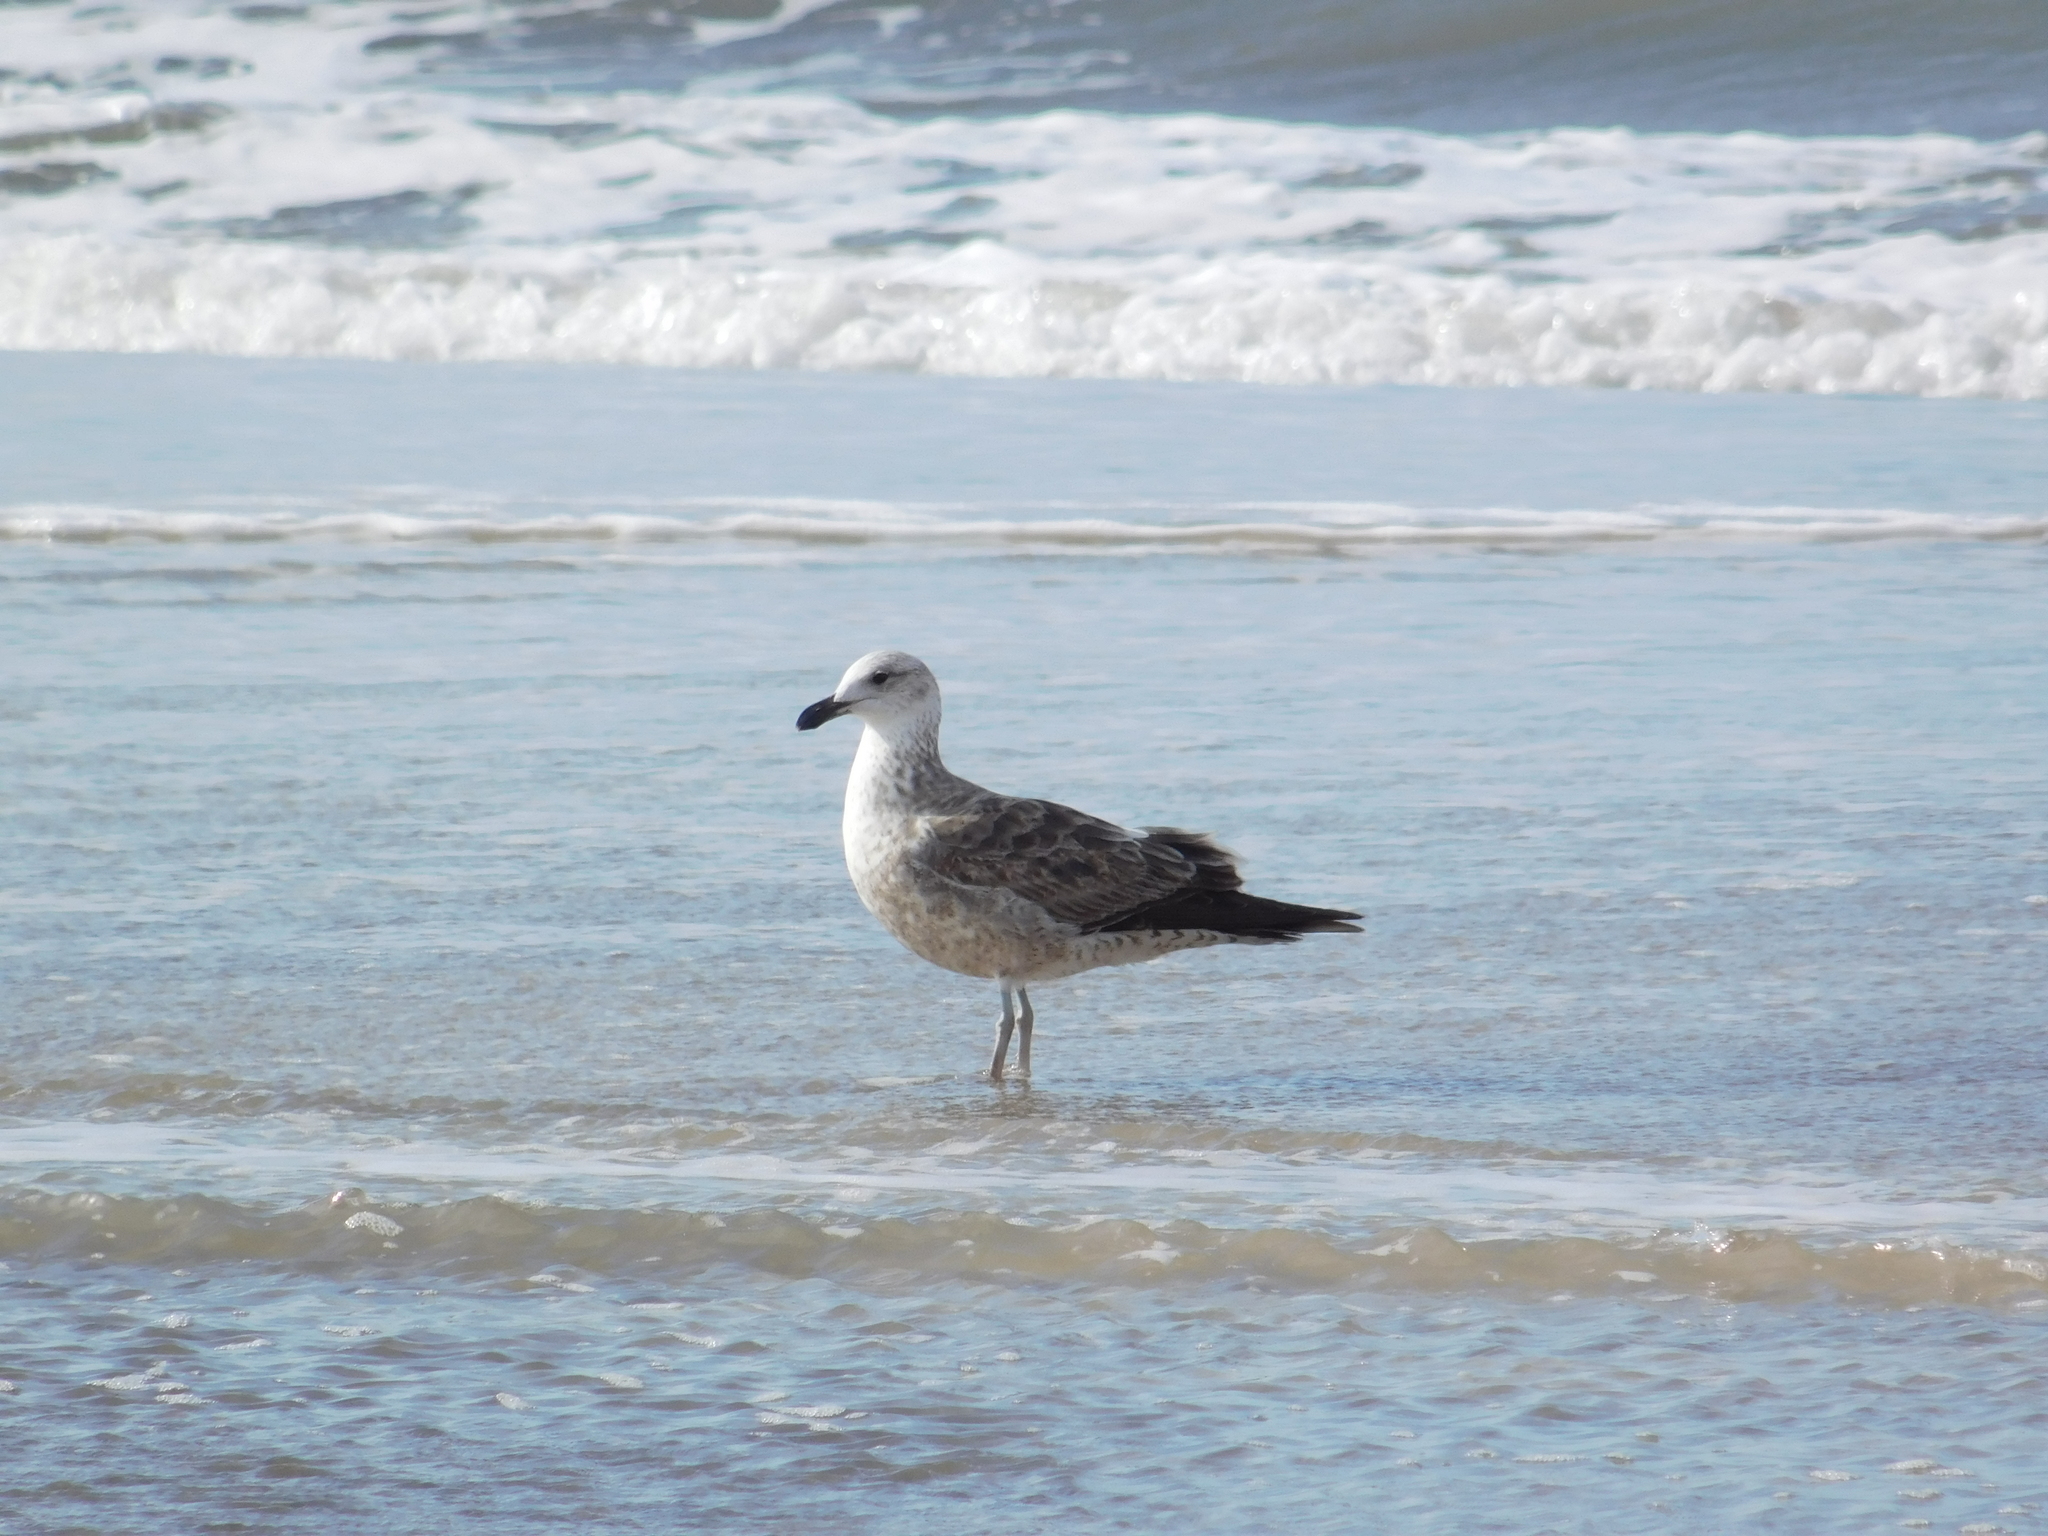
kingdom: Animalia
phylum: Chordata
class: Aves
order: Charadriiformes
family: Laridae
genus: Larus
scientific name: Larus dominicanus
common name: Kelp gull
